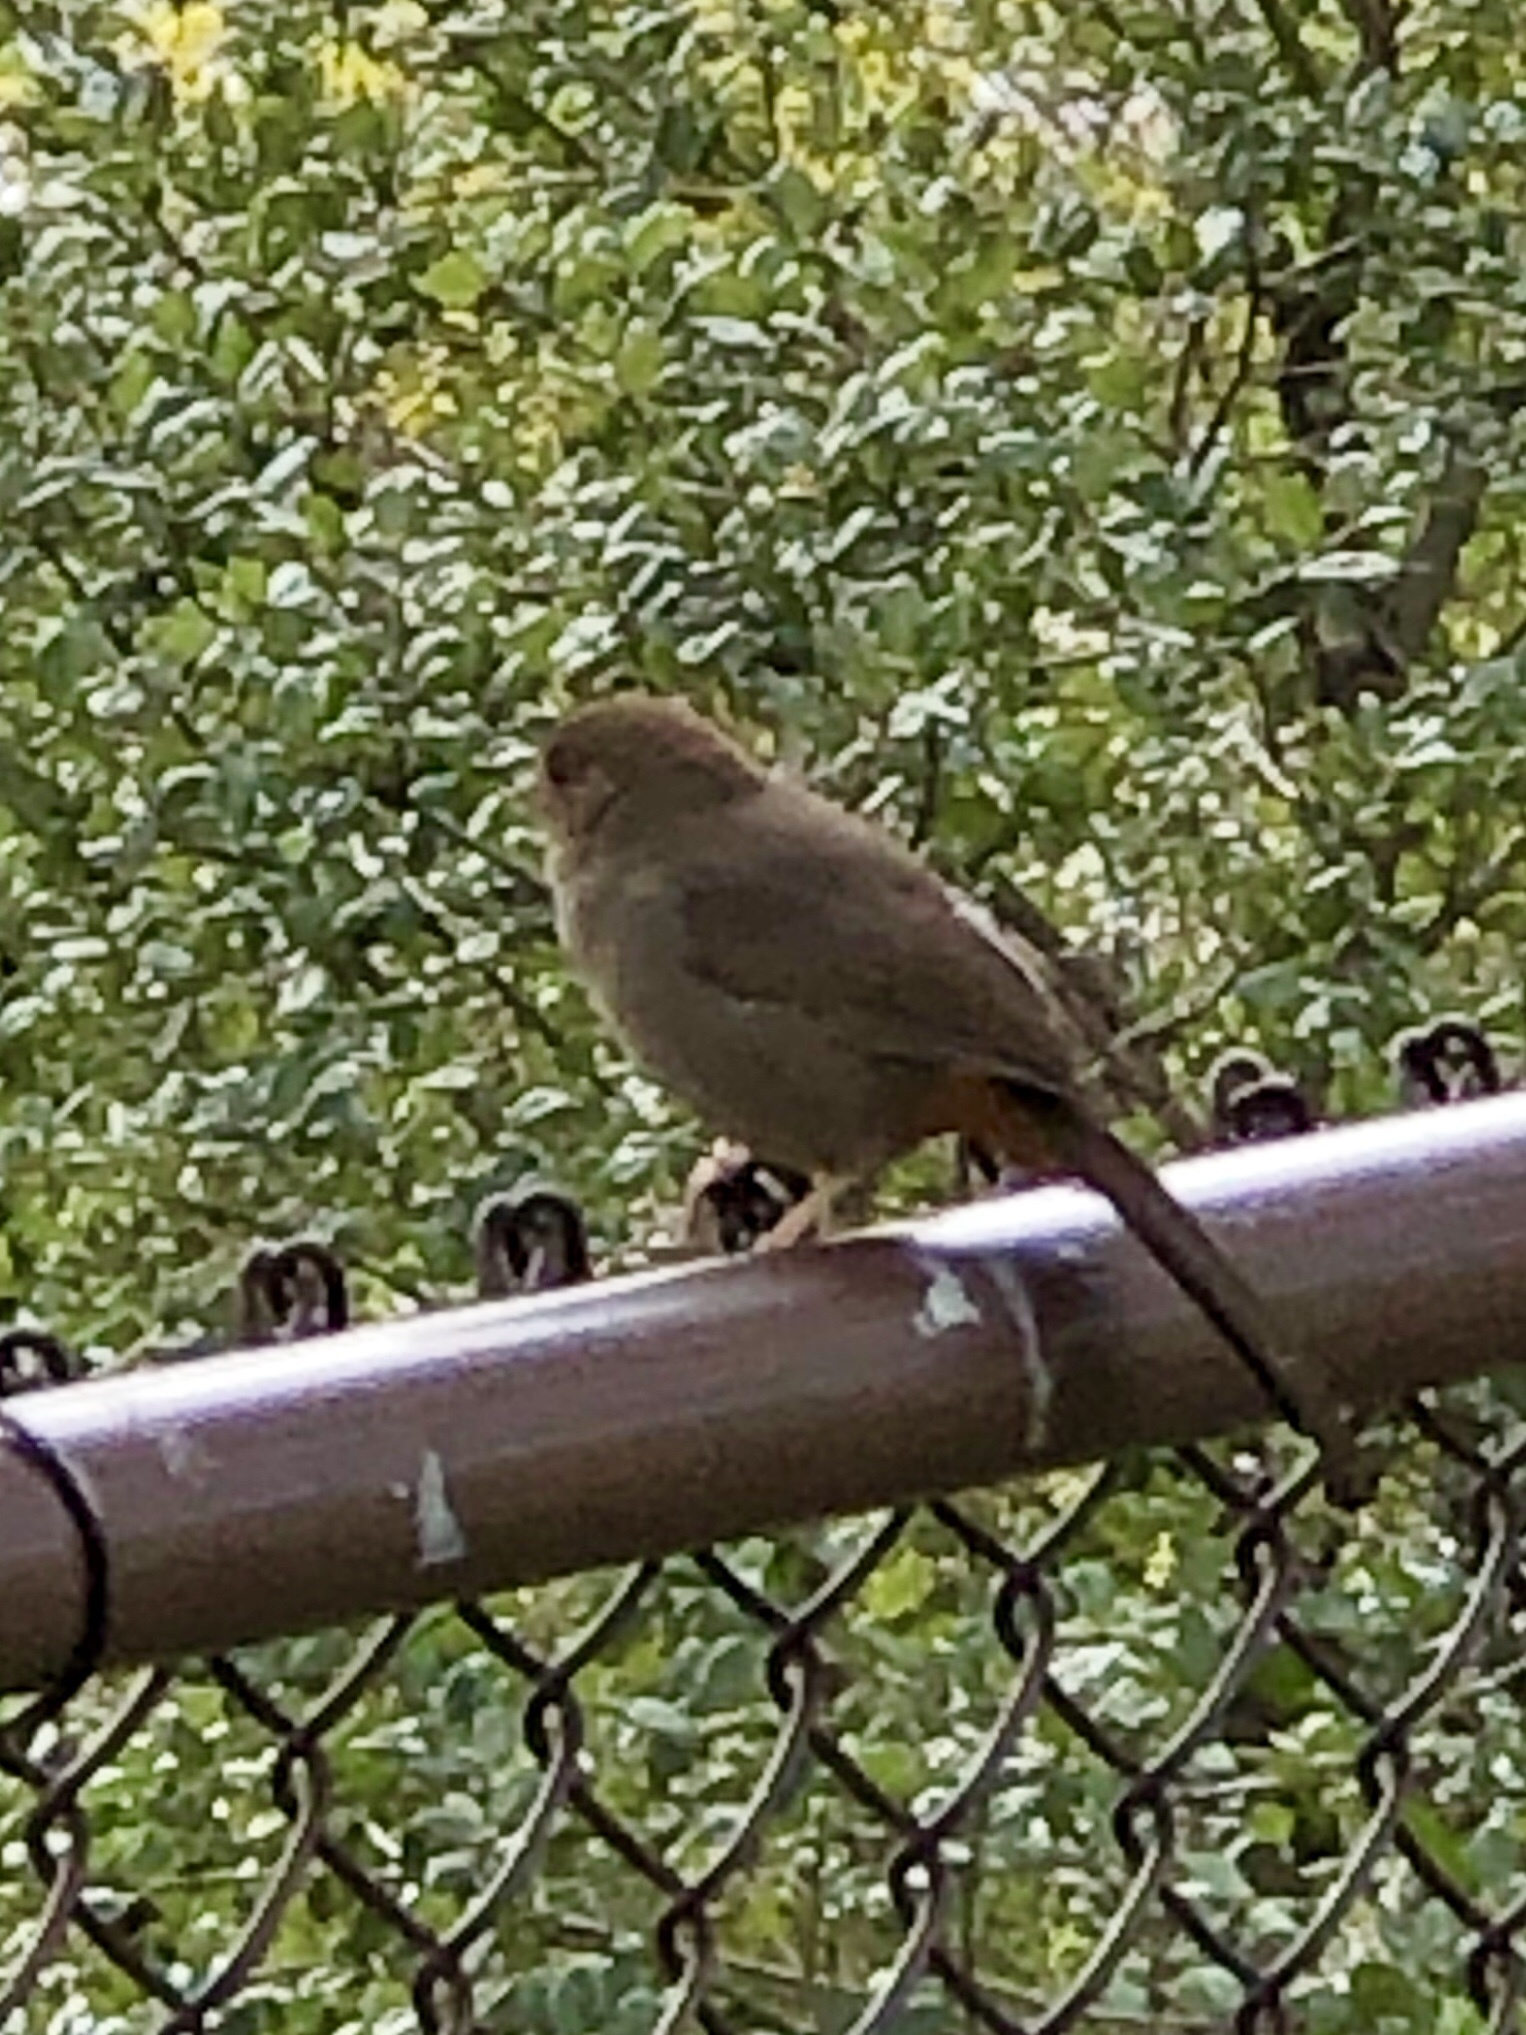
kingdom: Animalia
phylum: Chordata
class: Aves
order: Passeriformes
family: Passerellidae
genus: Melozone
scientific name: Melozone crissalis
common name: California towhee
